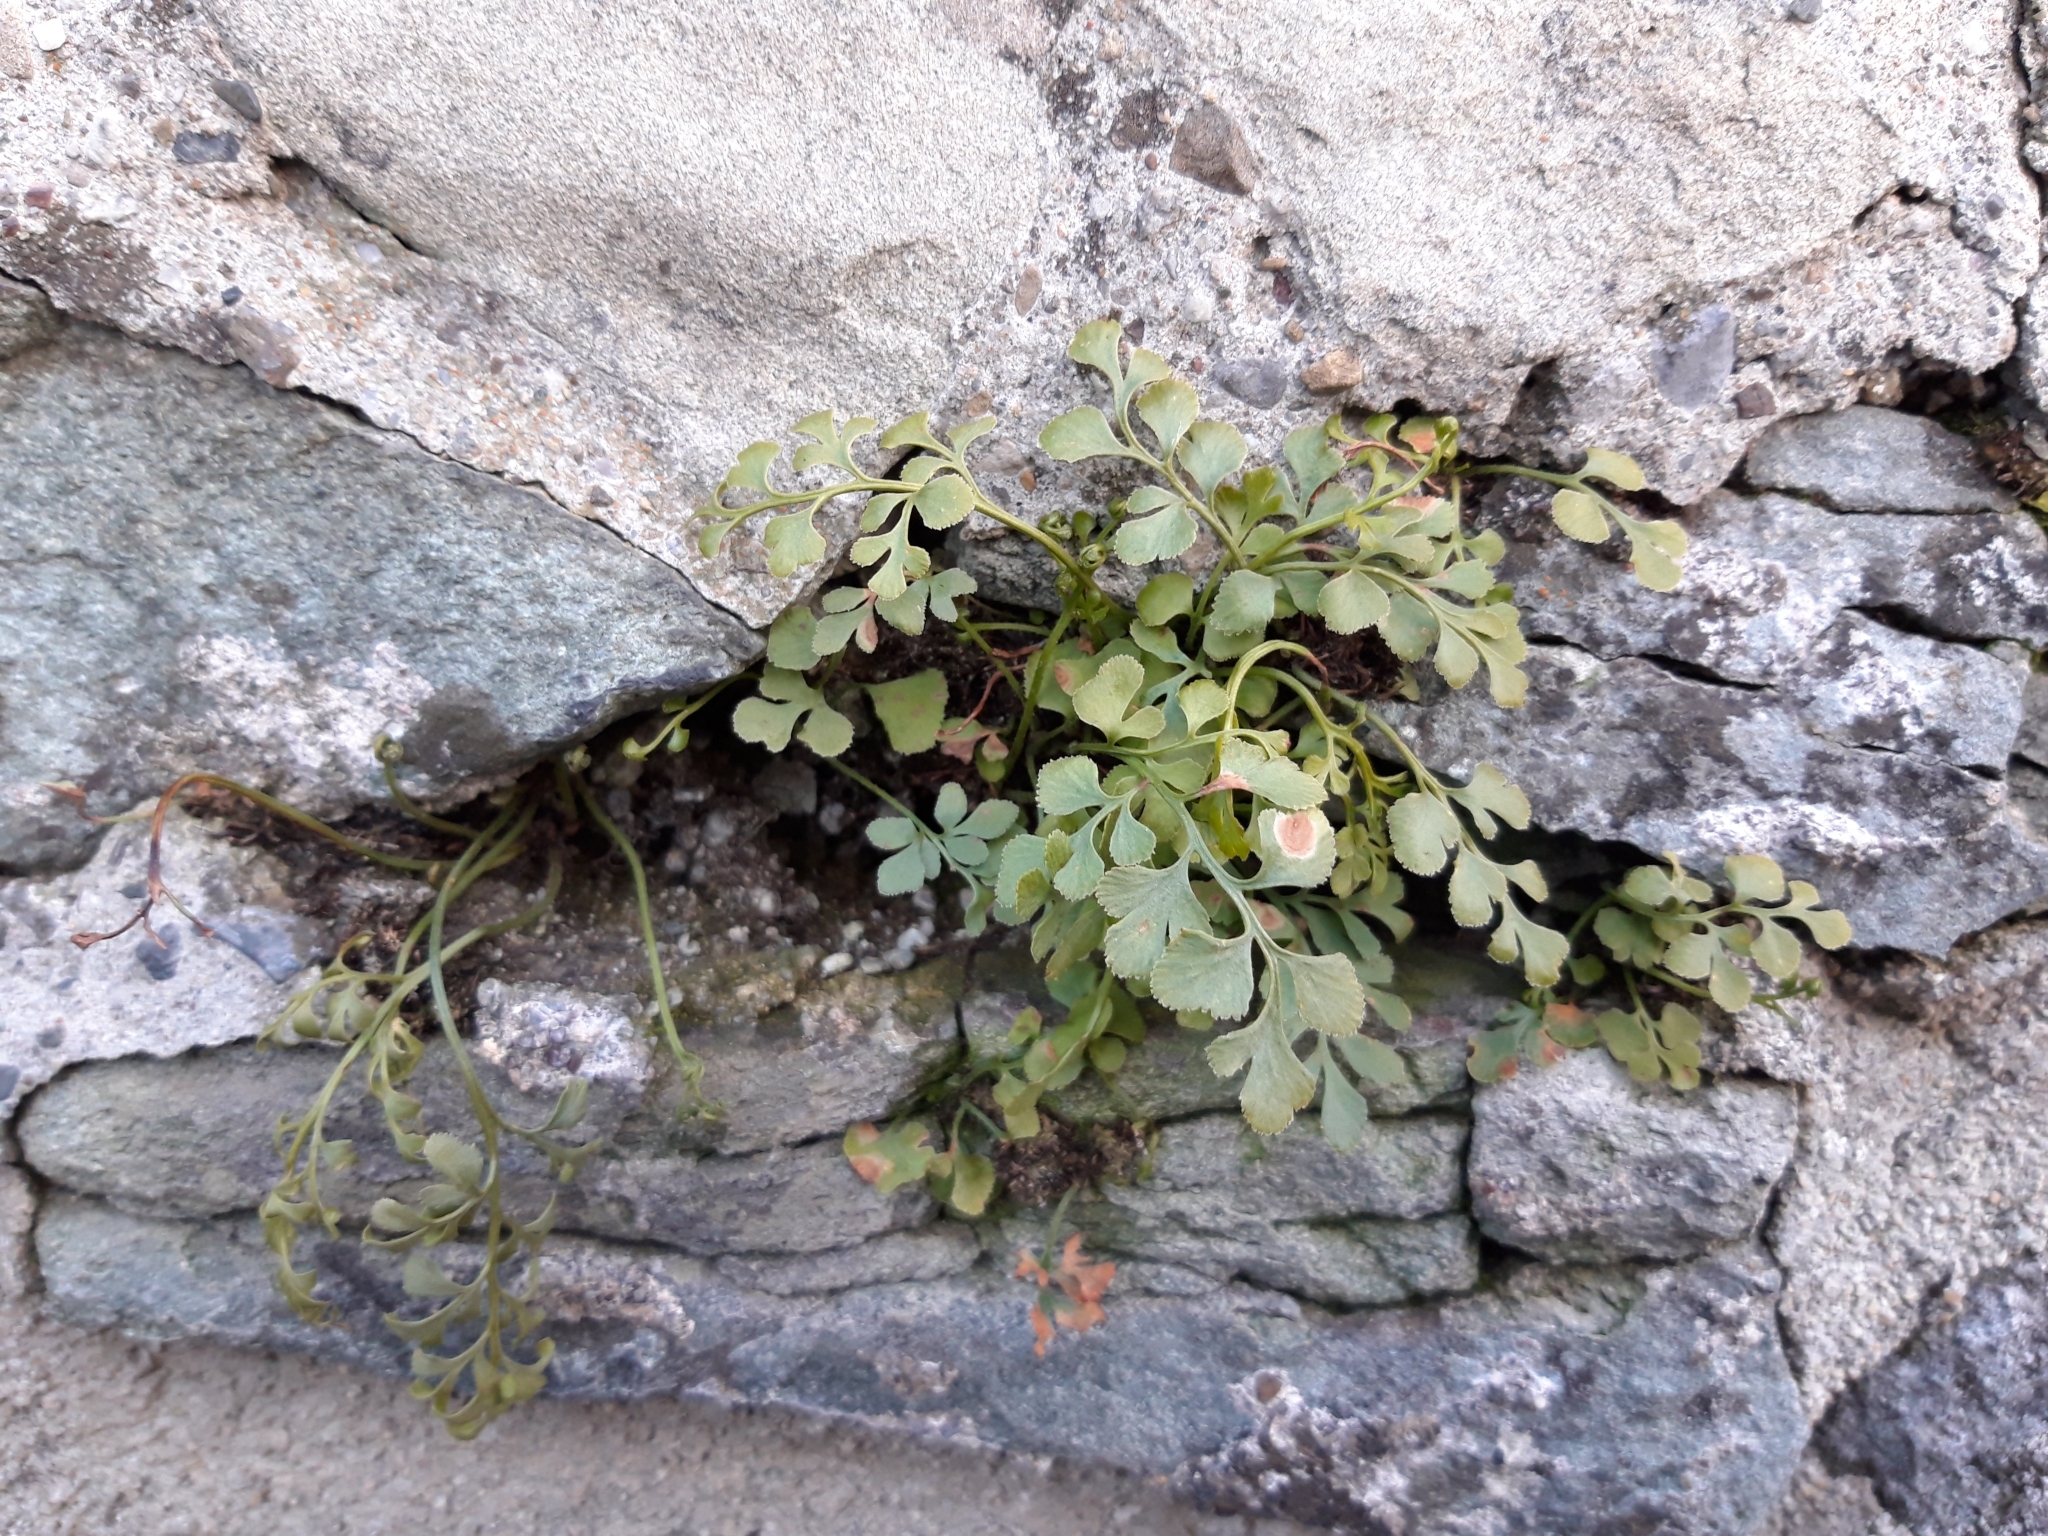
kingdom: Plantae
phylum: Tracheophyta
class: Polypodiopsida
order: Polypodiales
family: Aspleniaceae
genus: Asplenium
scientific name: Asplenium ruta-muraria
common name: Wall-rue
